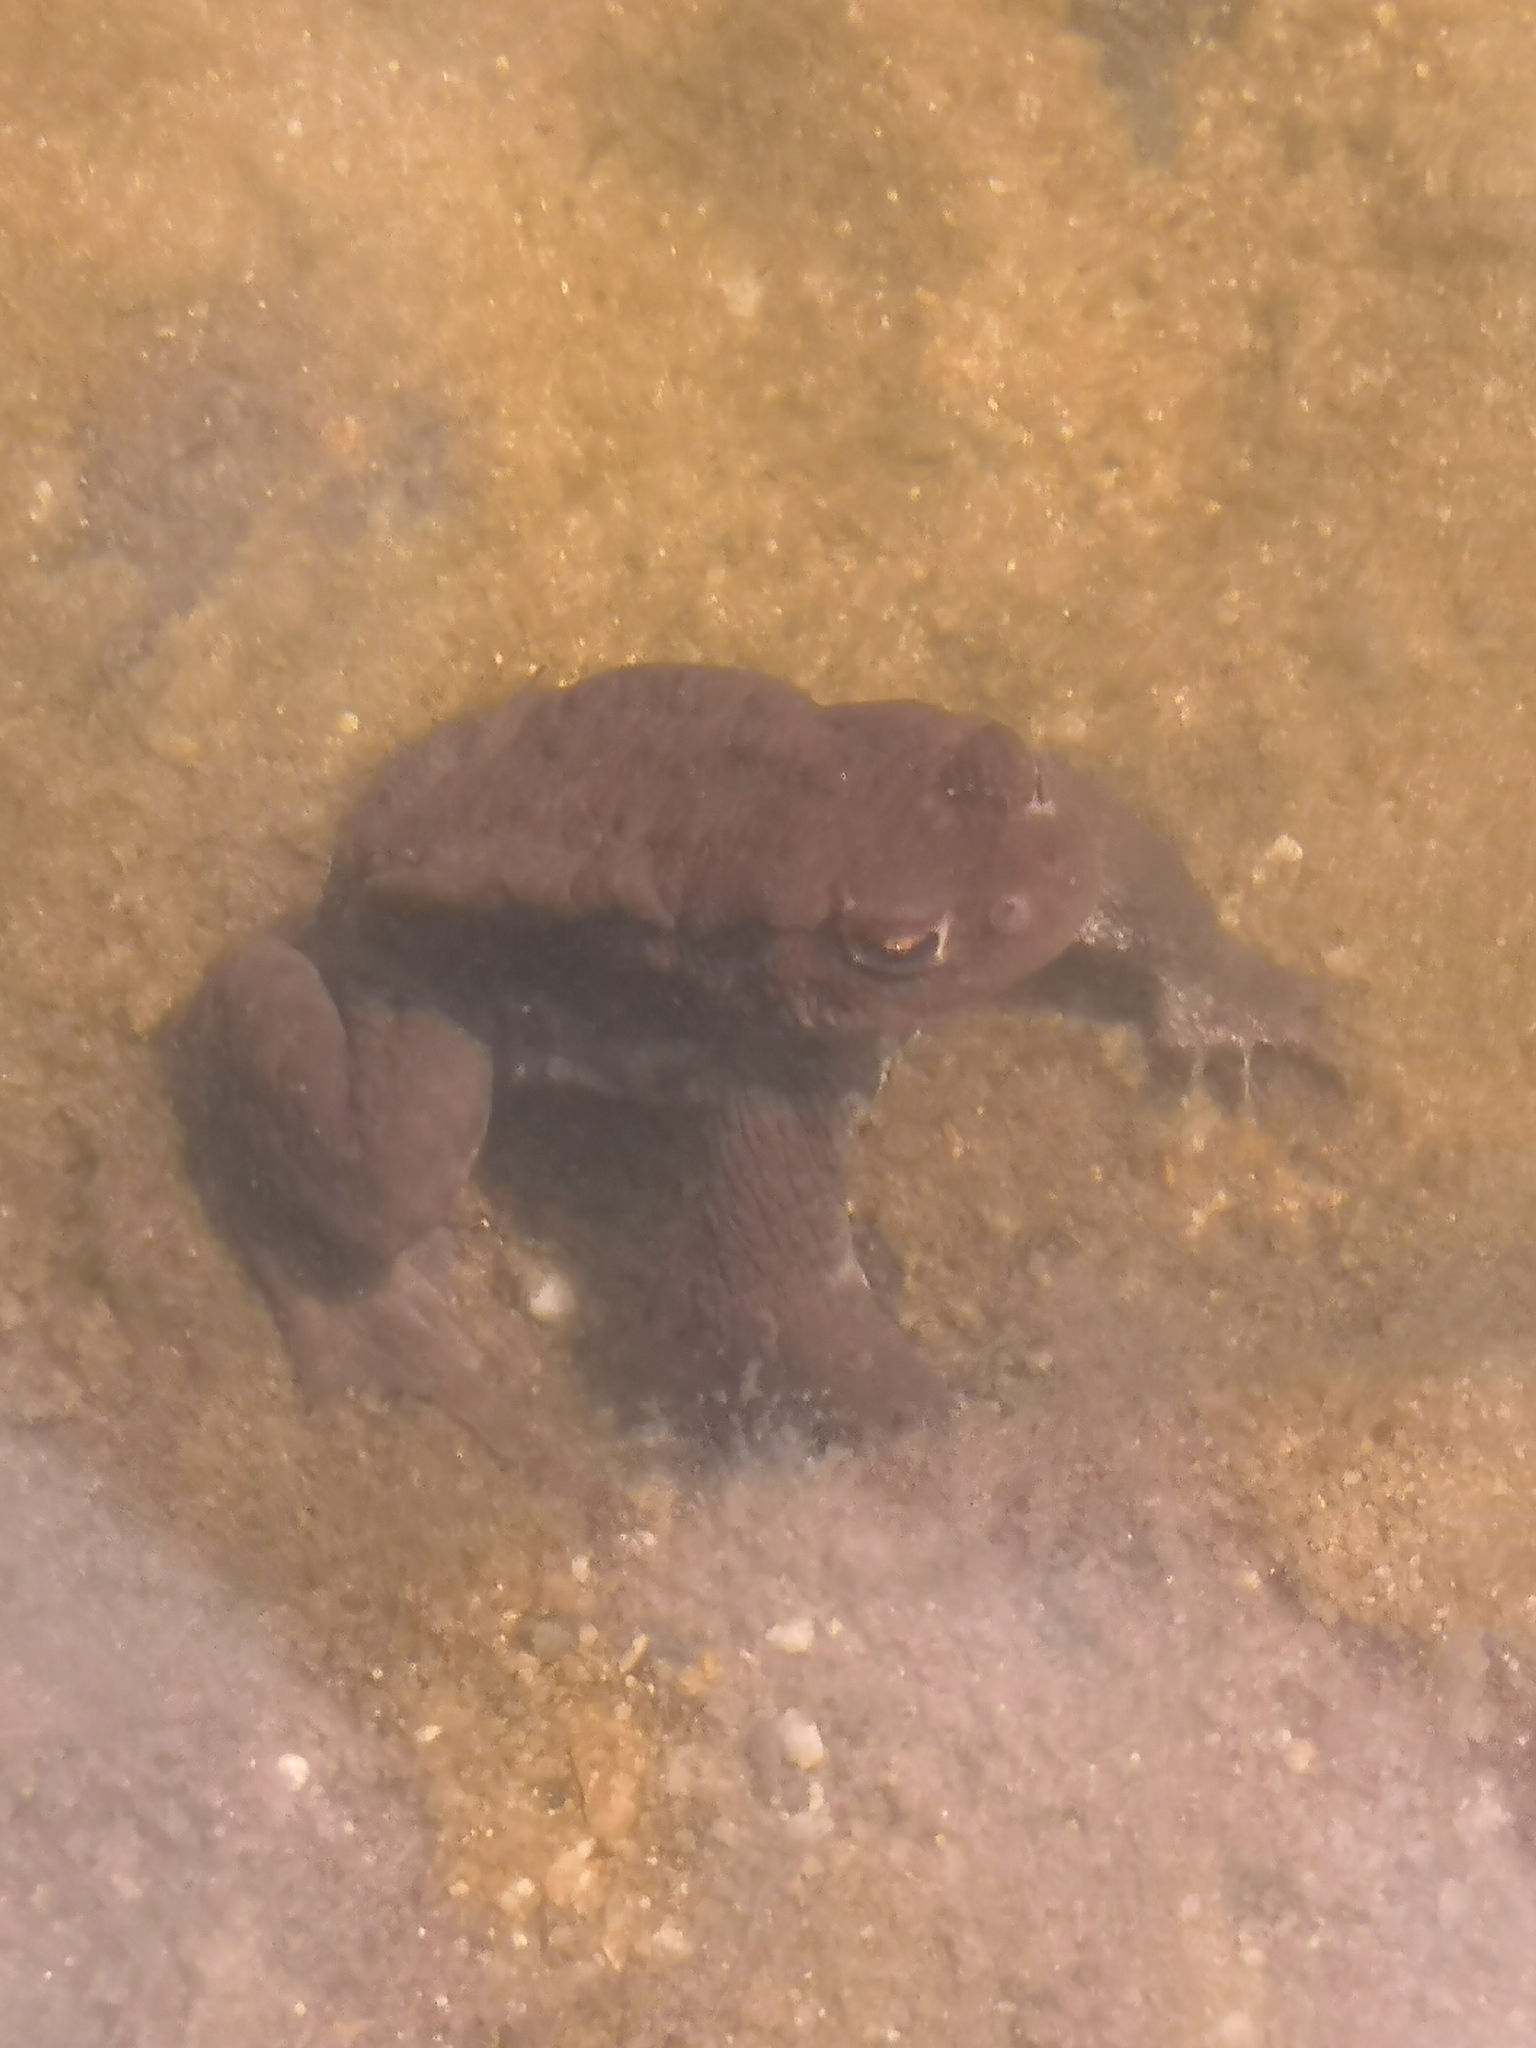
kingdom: Animalia
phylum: Chordata
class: Amphibia
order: Anura
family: Bufonidae
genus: Bufo
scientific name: Bufo bufo
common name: Common toad
